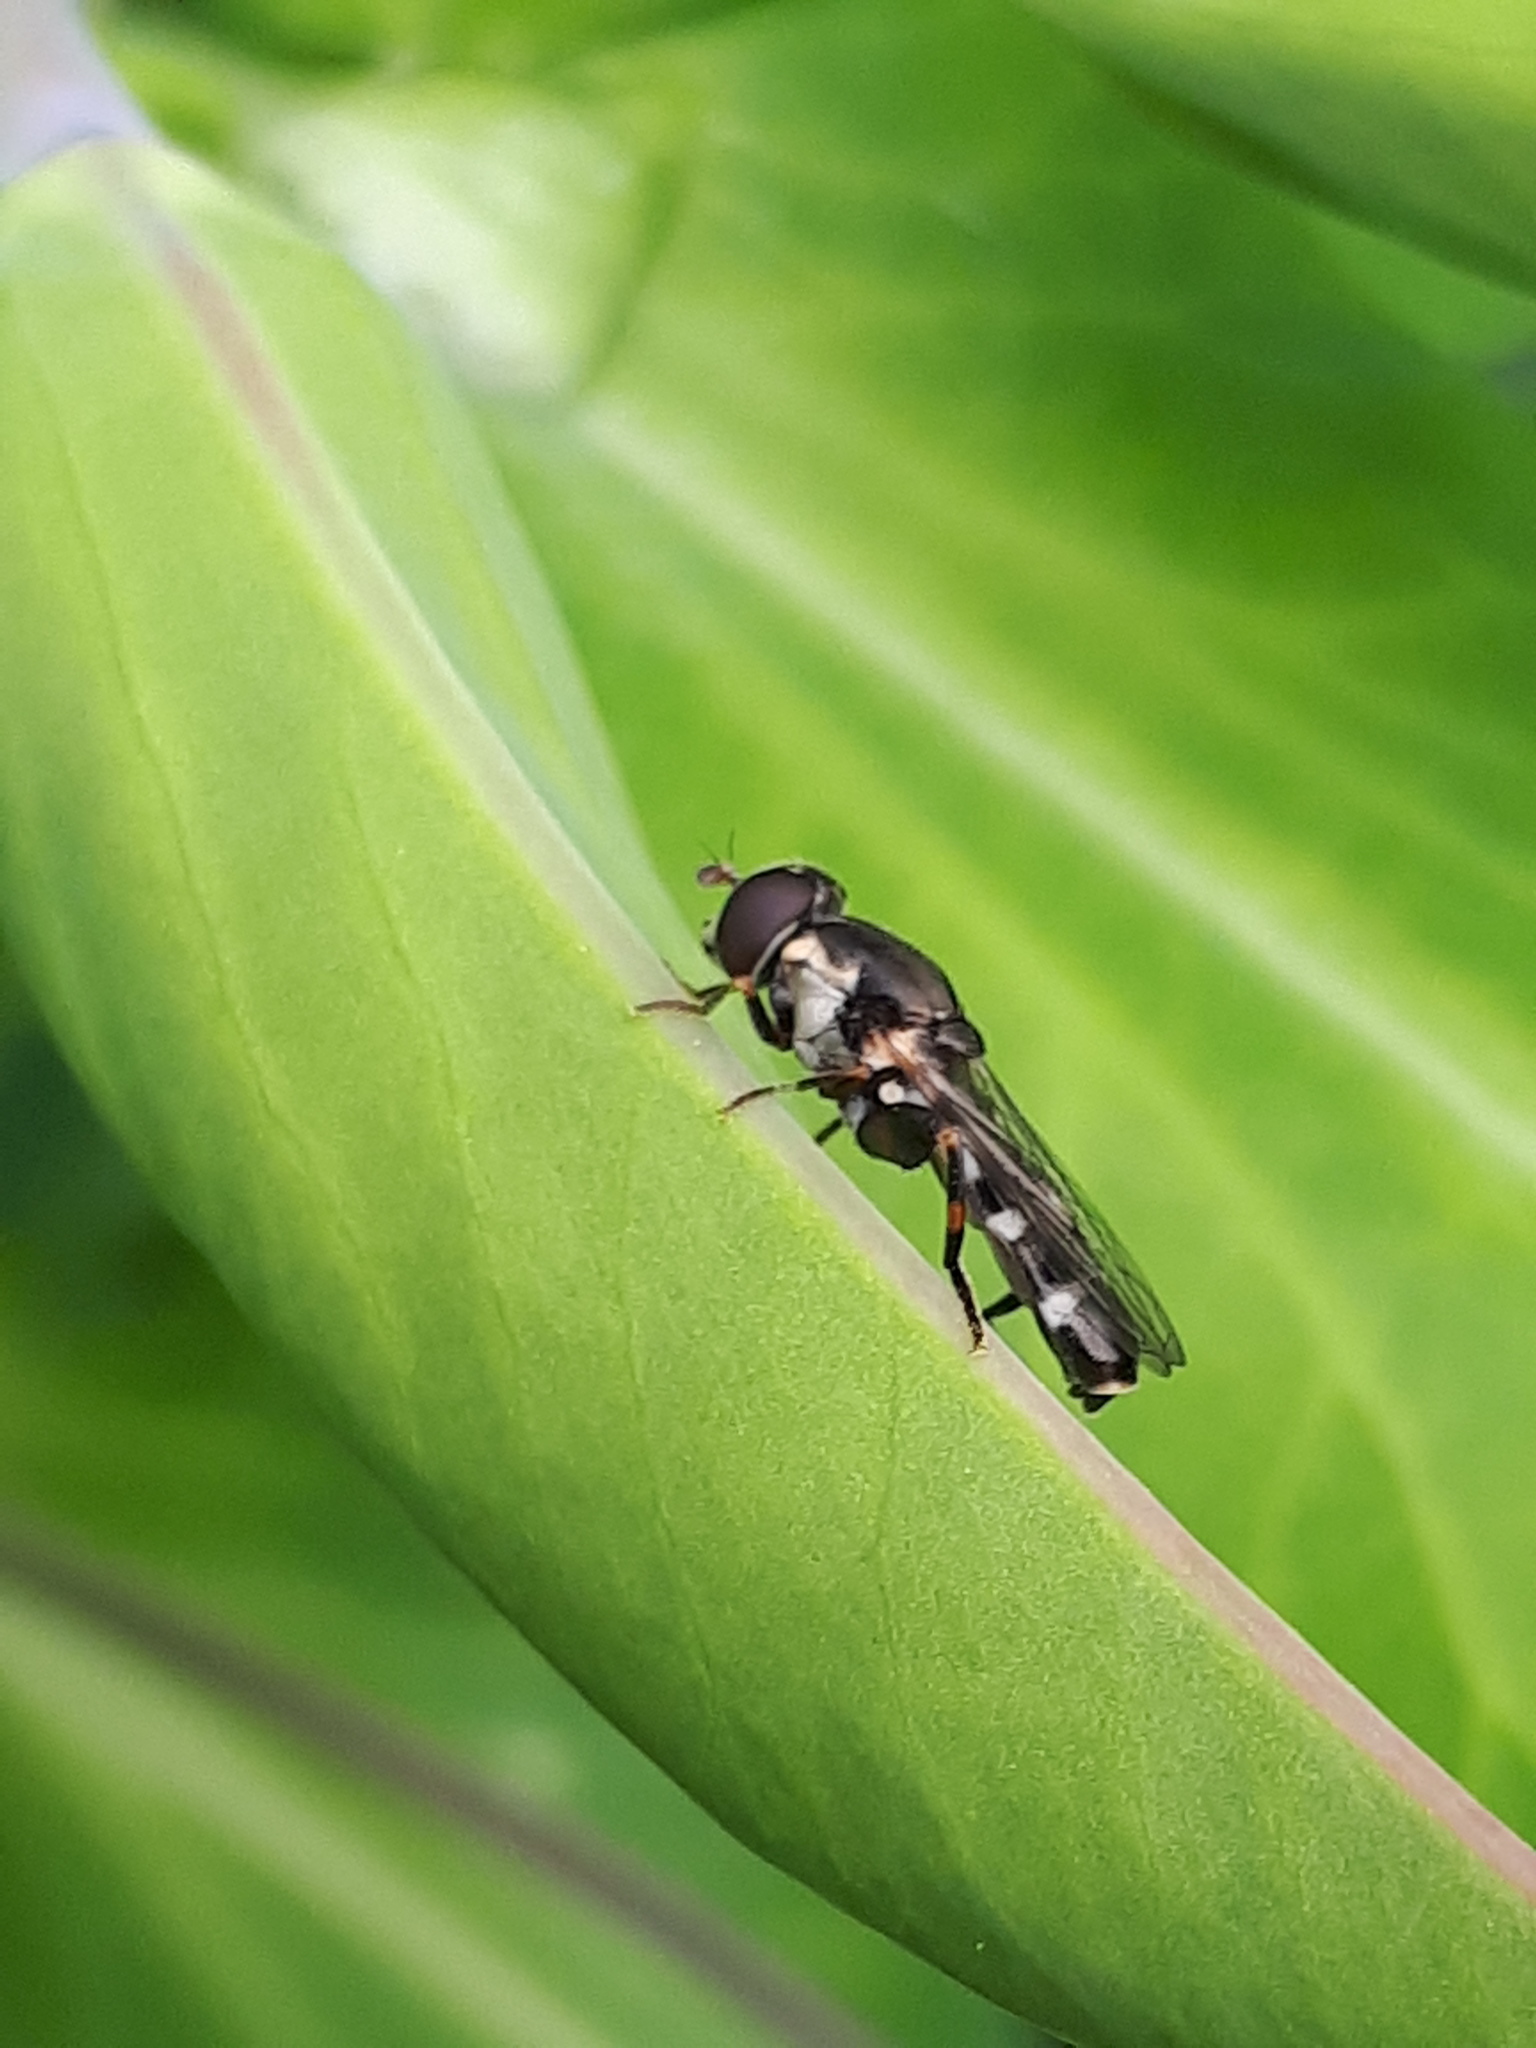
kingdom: Animalia
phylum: Arthropoda
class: Insecta
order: Diptera
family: Syrphidae
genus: Syritta
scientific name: Syritta pipiens
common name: Hover fly
